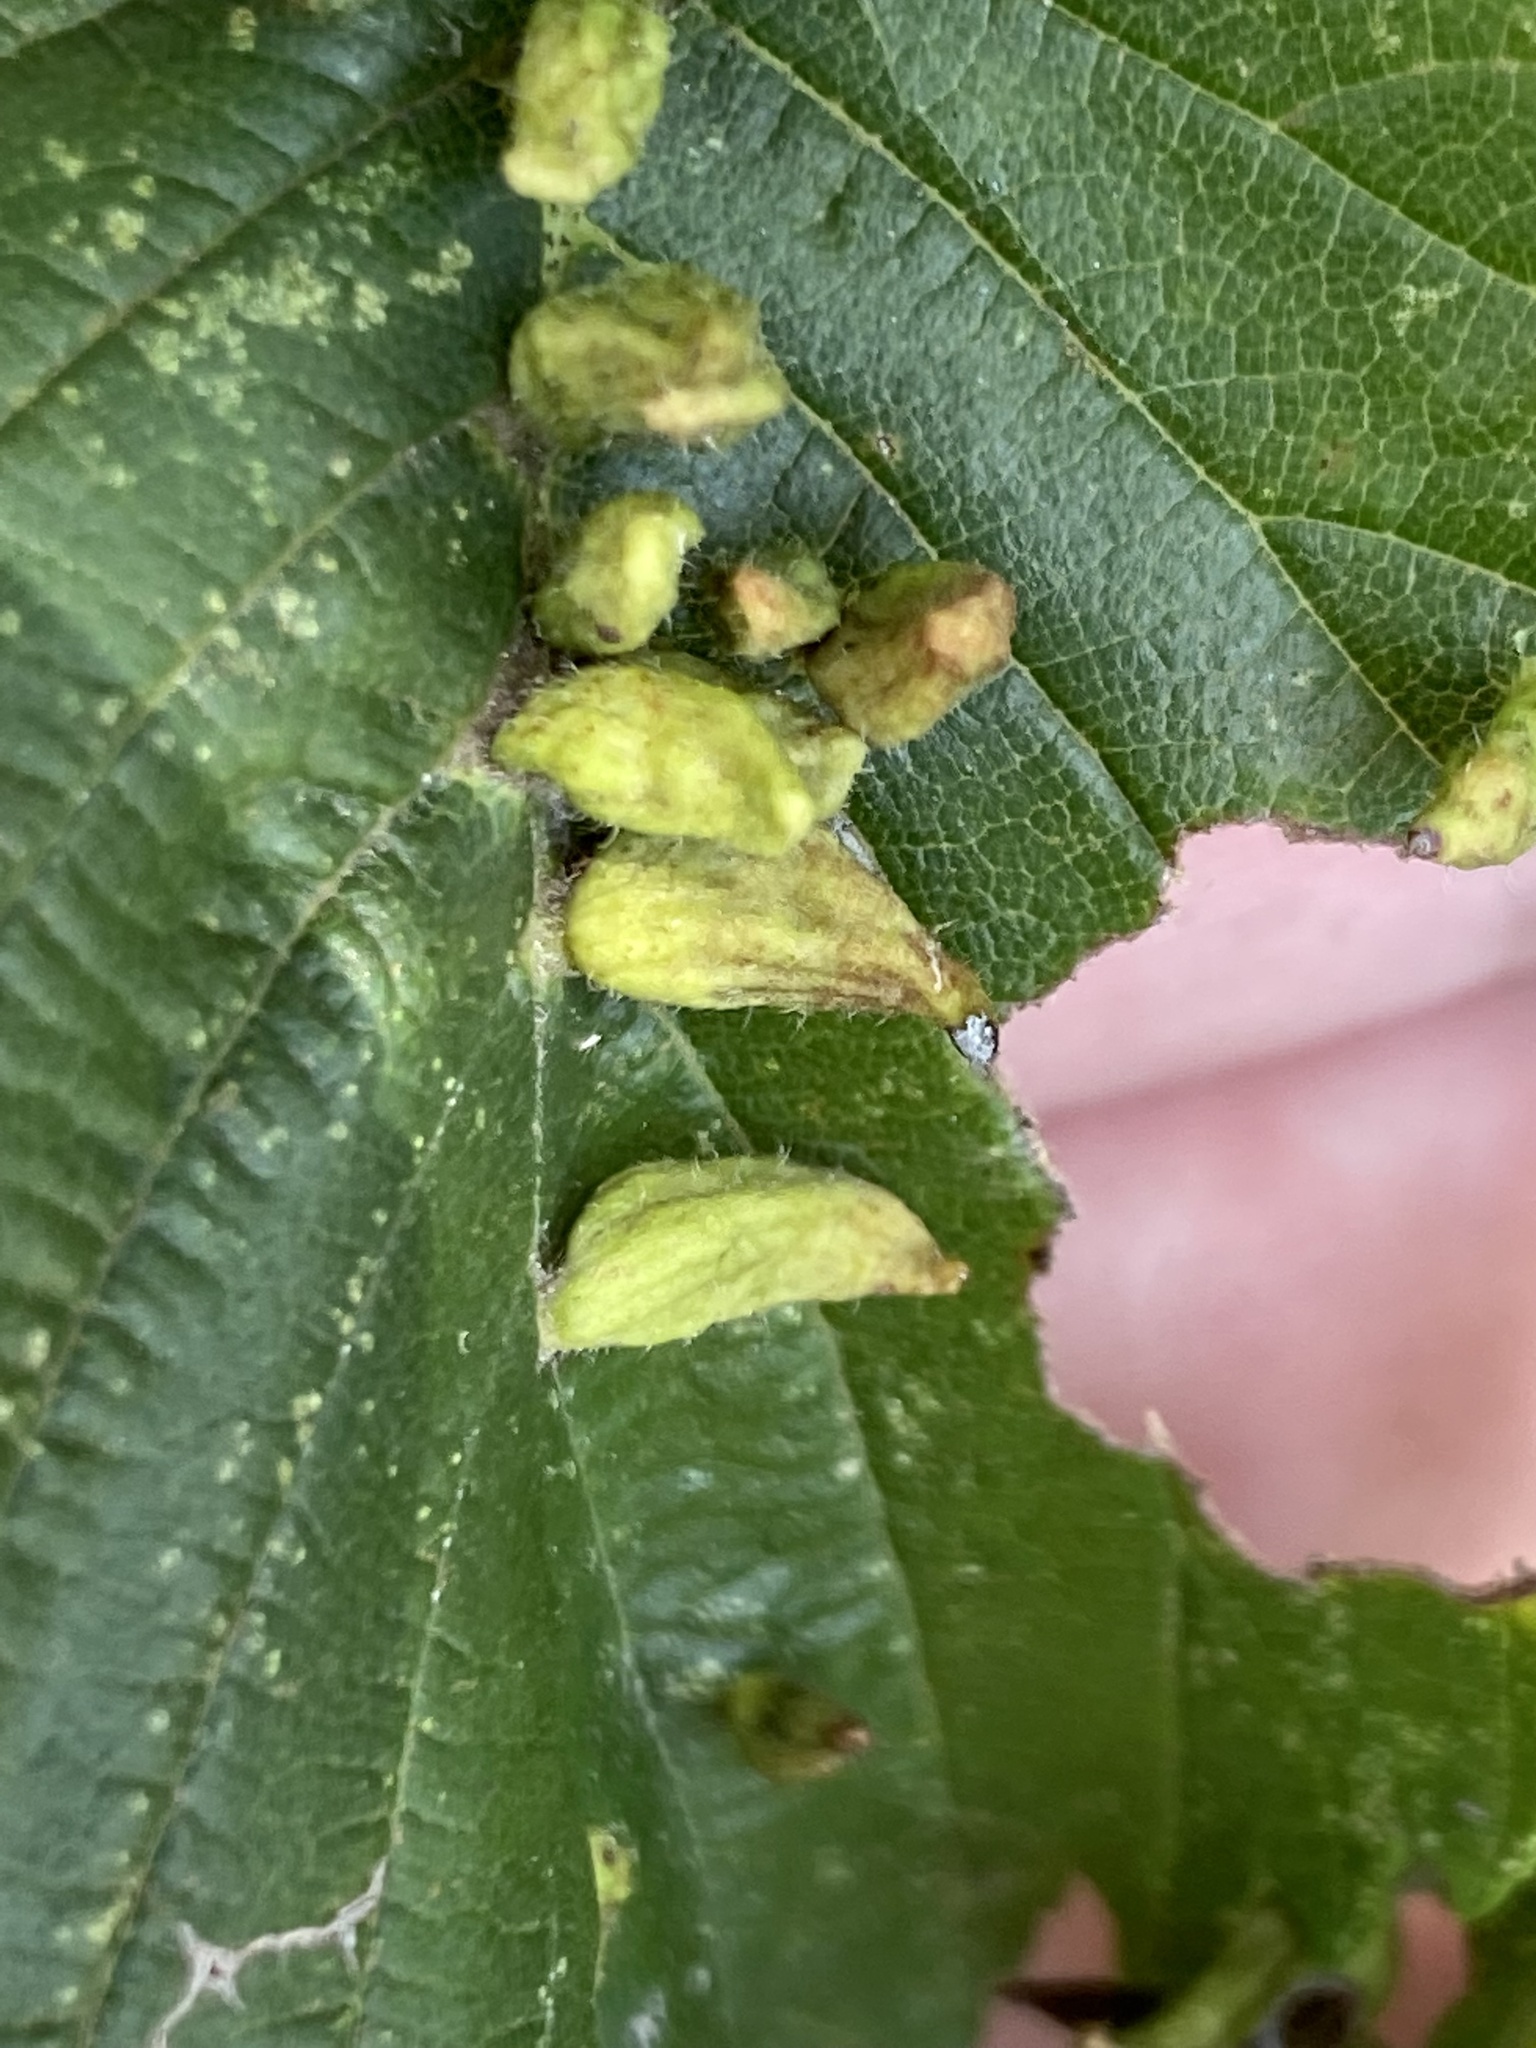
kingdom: Animalia
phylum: Arthropoda
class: Arachnida
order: Trombidiformes
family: Eriophyidae
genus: Aceria
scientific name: Aceria
